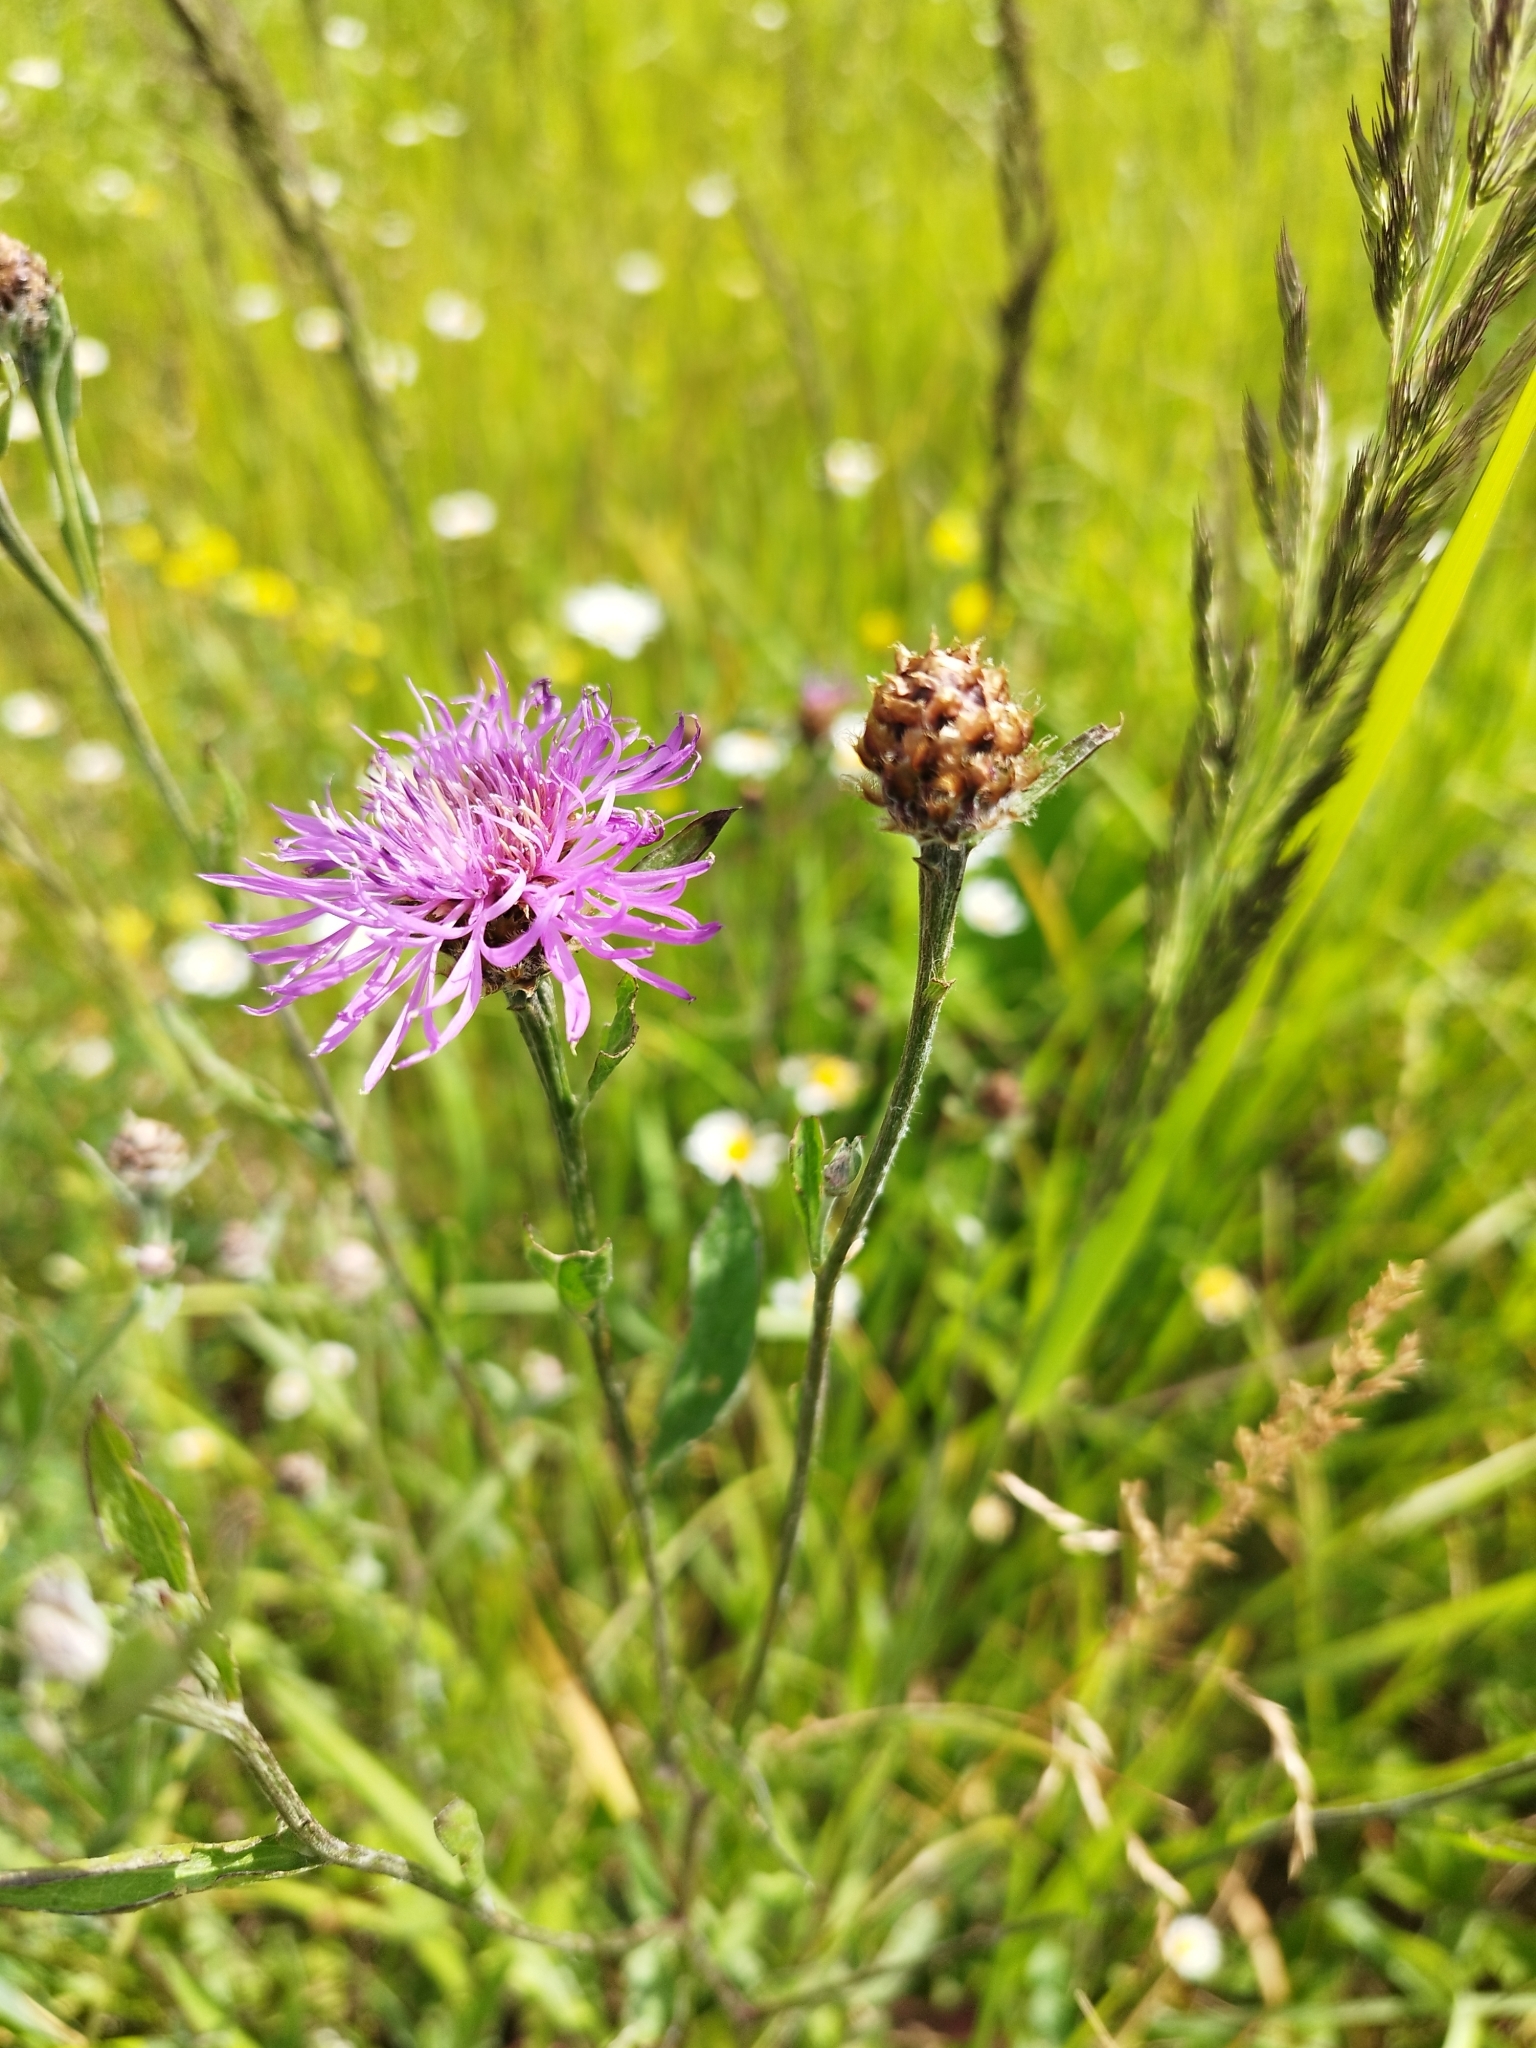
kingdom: Plantae
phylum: Tracheophyta
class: Magnoliopsida
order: Asterales
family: Asteraceae
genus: Centaurea
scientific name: Centaurea jacea
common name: Brown knapweed
